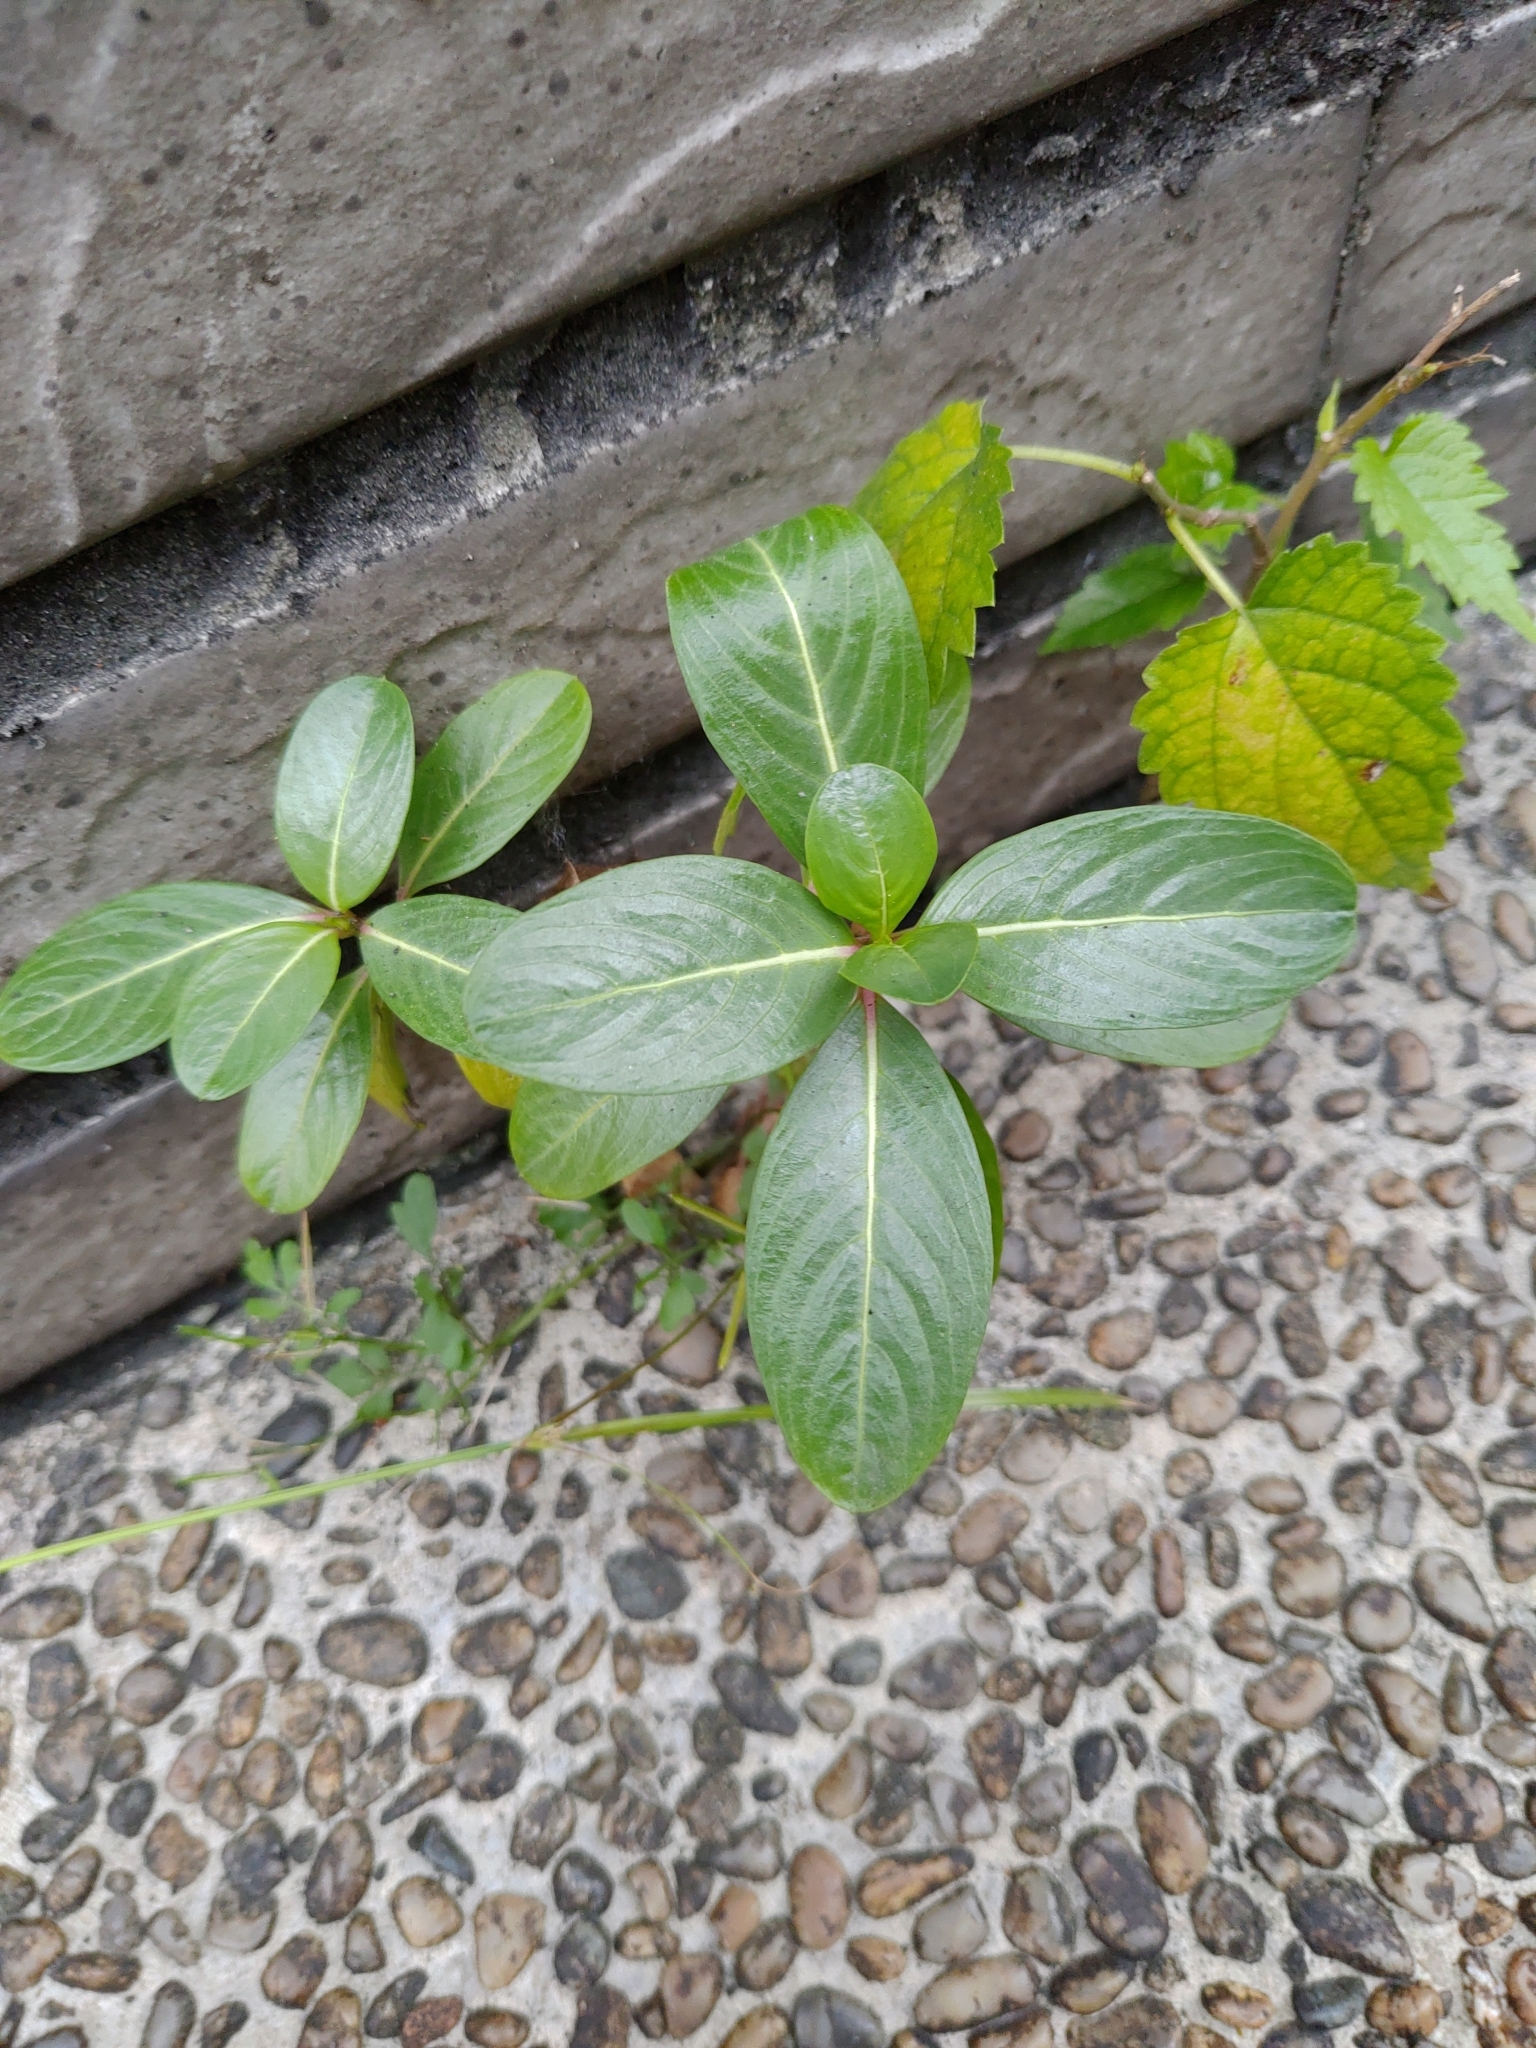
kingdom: Plantae
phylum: Tracheophyta
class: Magnoliopsida
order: Gentianales
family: Apocynaceae
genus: Catharanthus
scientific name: Catharanthus roseus
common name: Madagascar periwinkle
